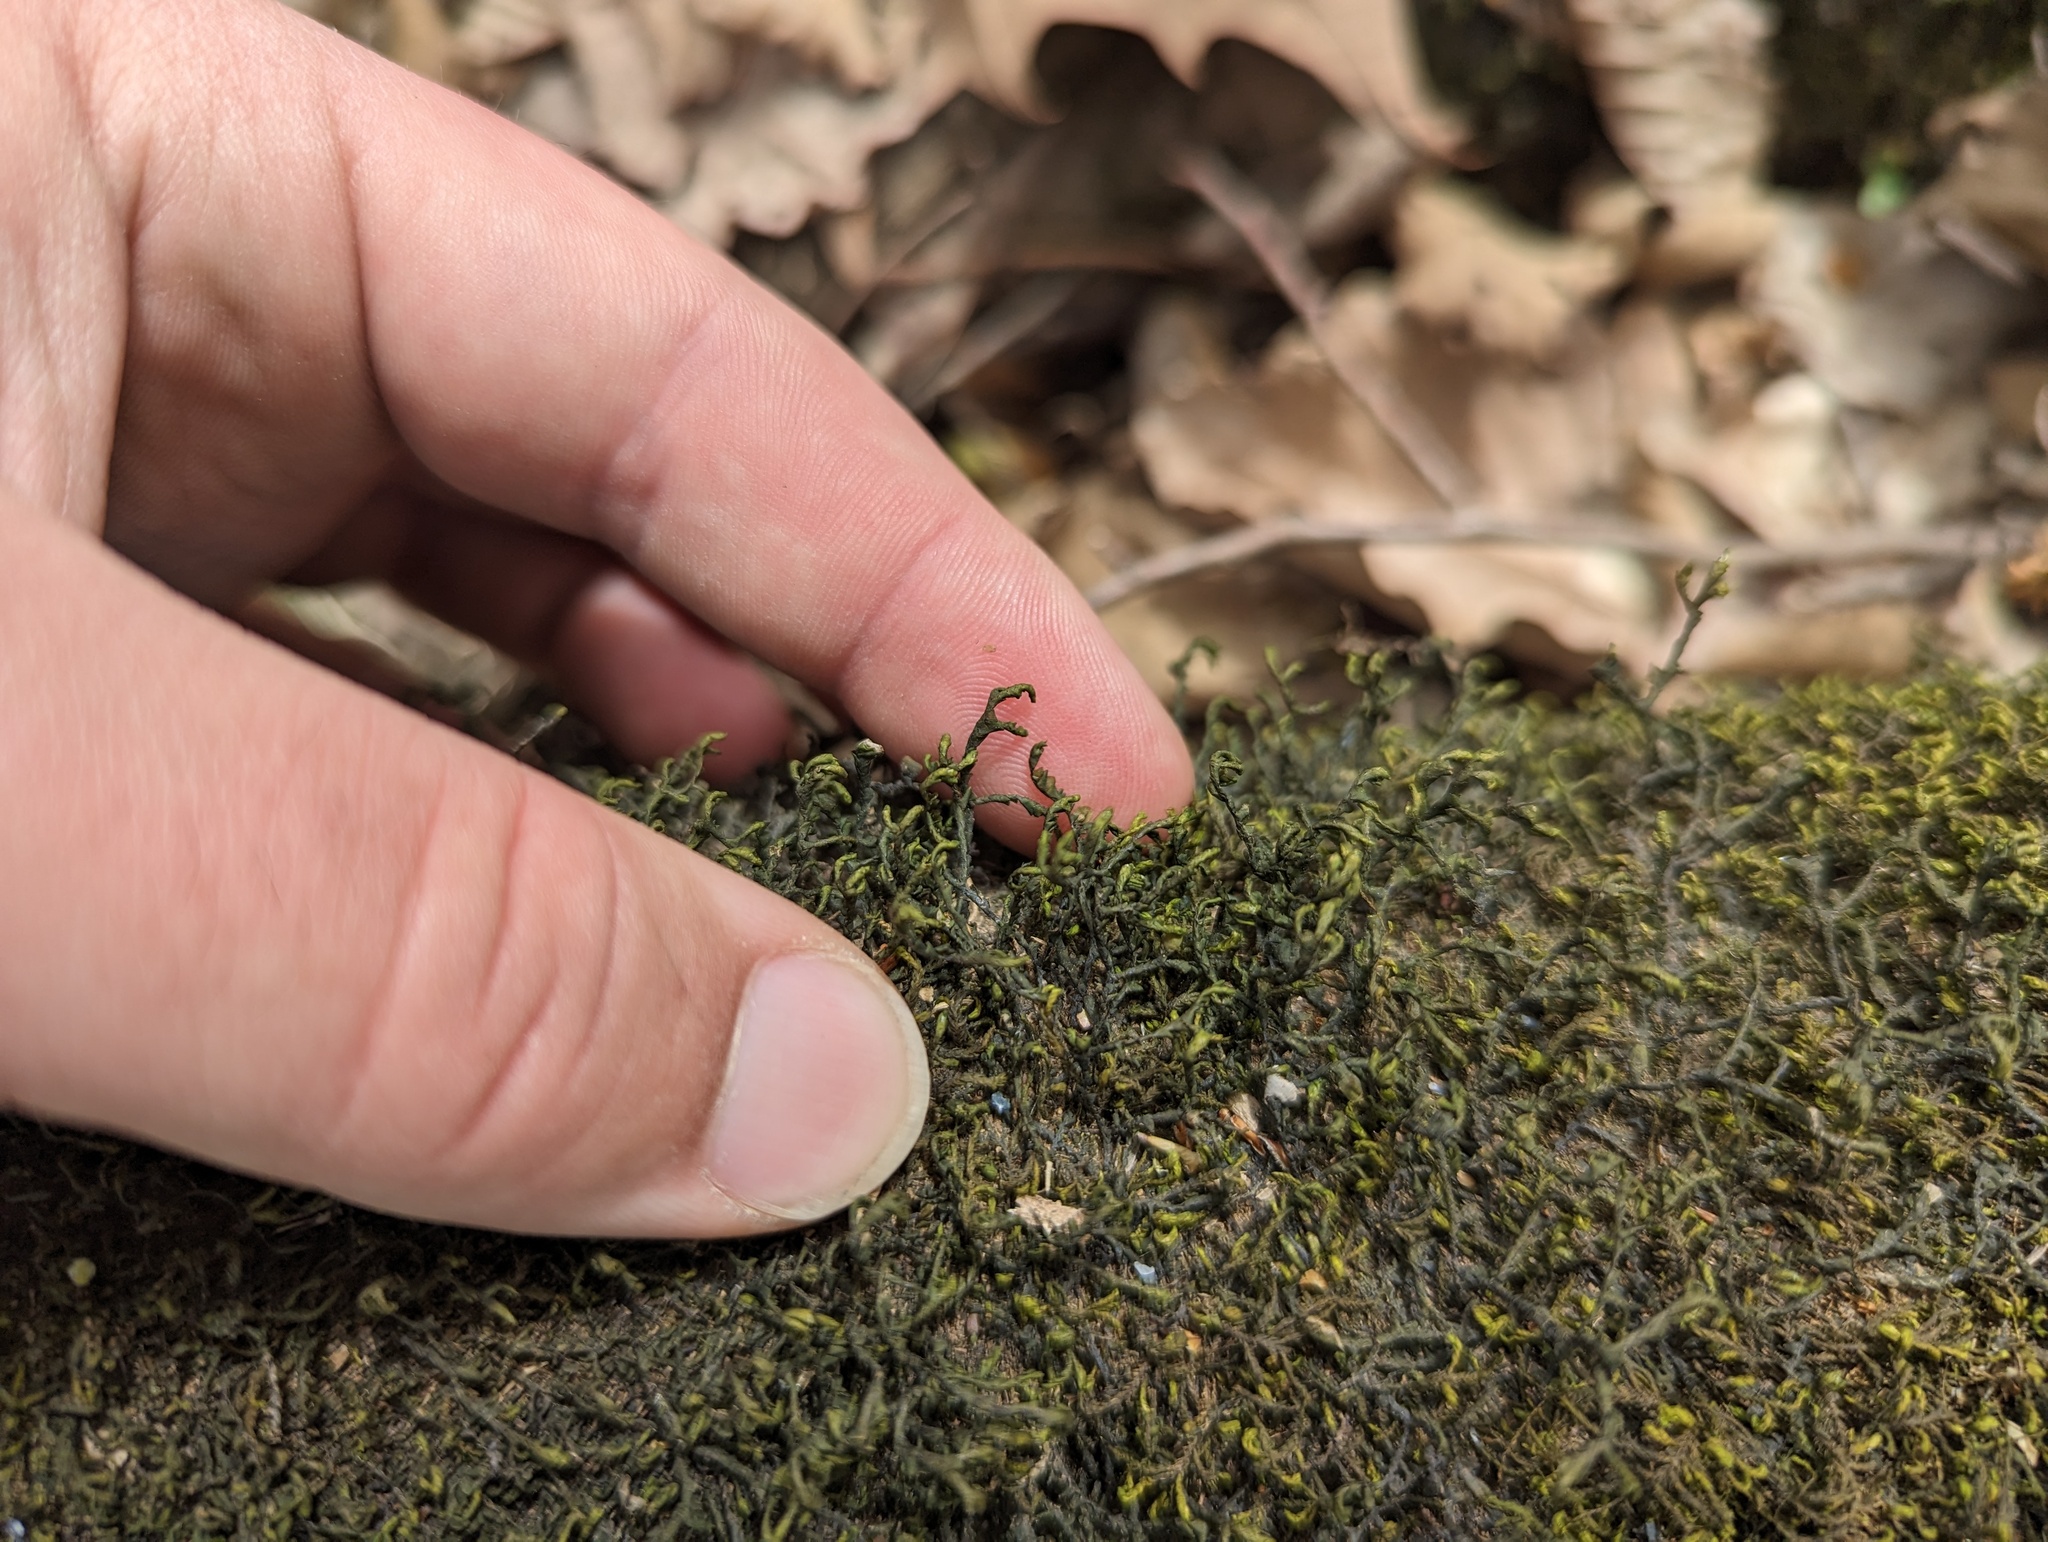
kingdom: Plantae
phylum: Marchantiophyta
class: Jungermanniopsida
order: Porellales
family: Porellaceae
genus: Porella
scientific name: Porella pinnata
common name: Pinnate scalewort
